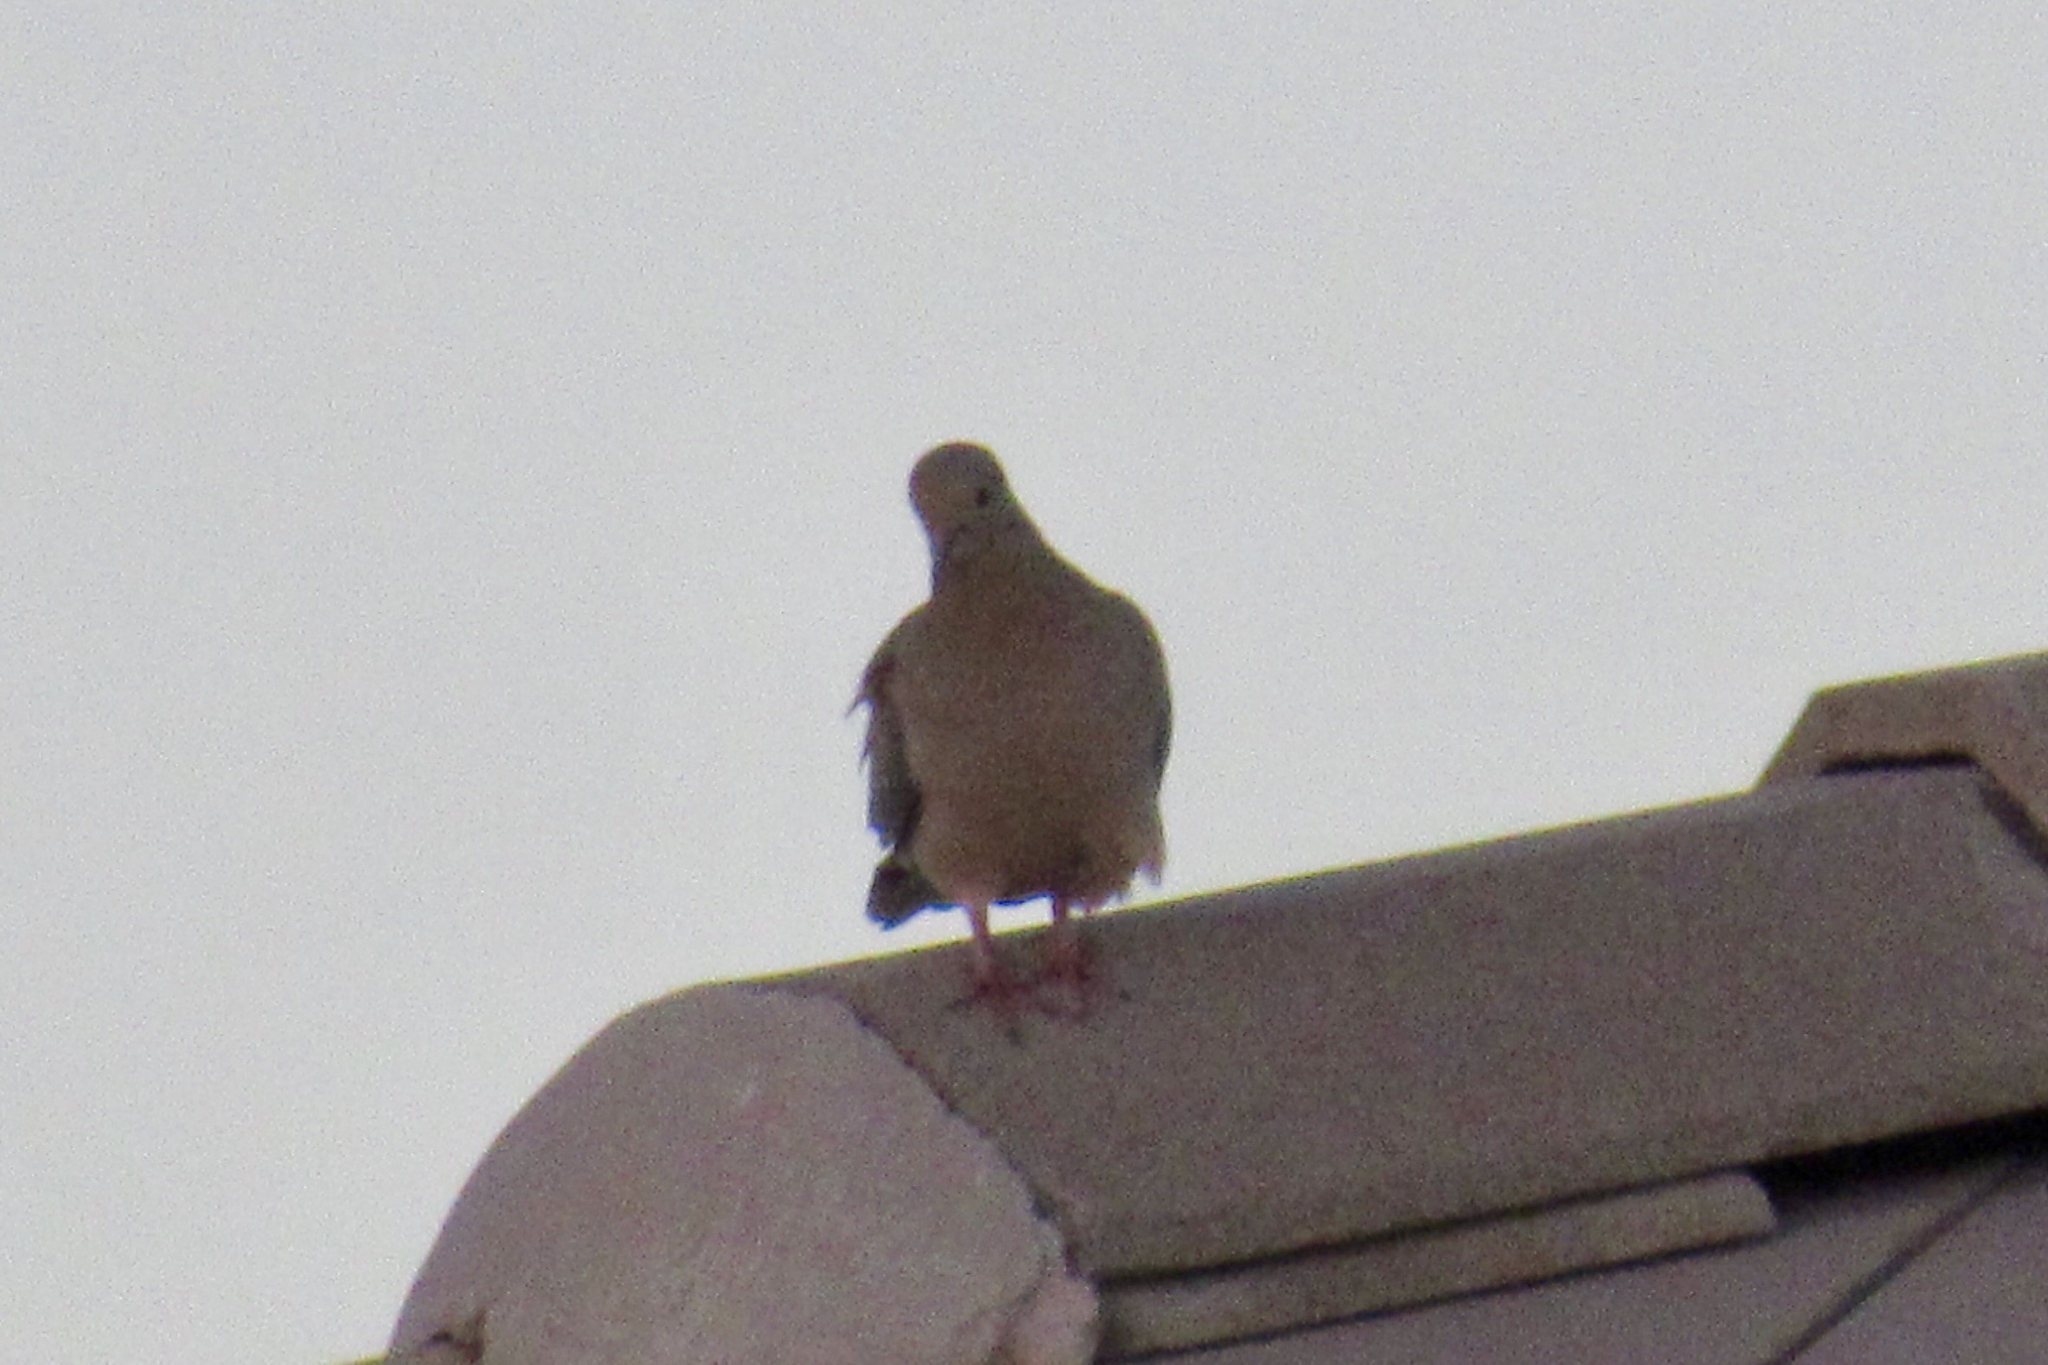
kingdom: Animalia
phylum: Chordata
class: Aves
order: Columbiformes
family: Columbidae
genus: Zenaida
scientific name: Zenaida macroura
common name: Mourning dove
